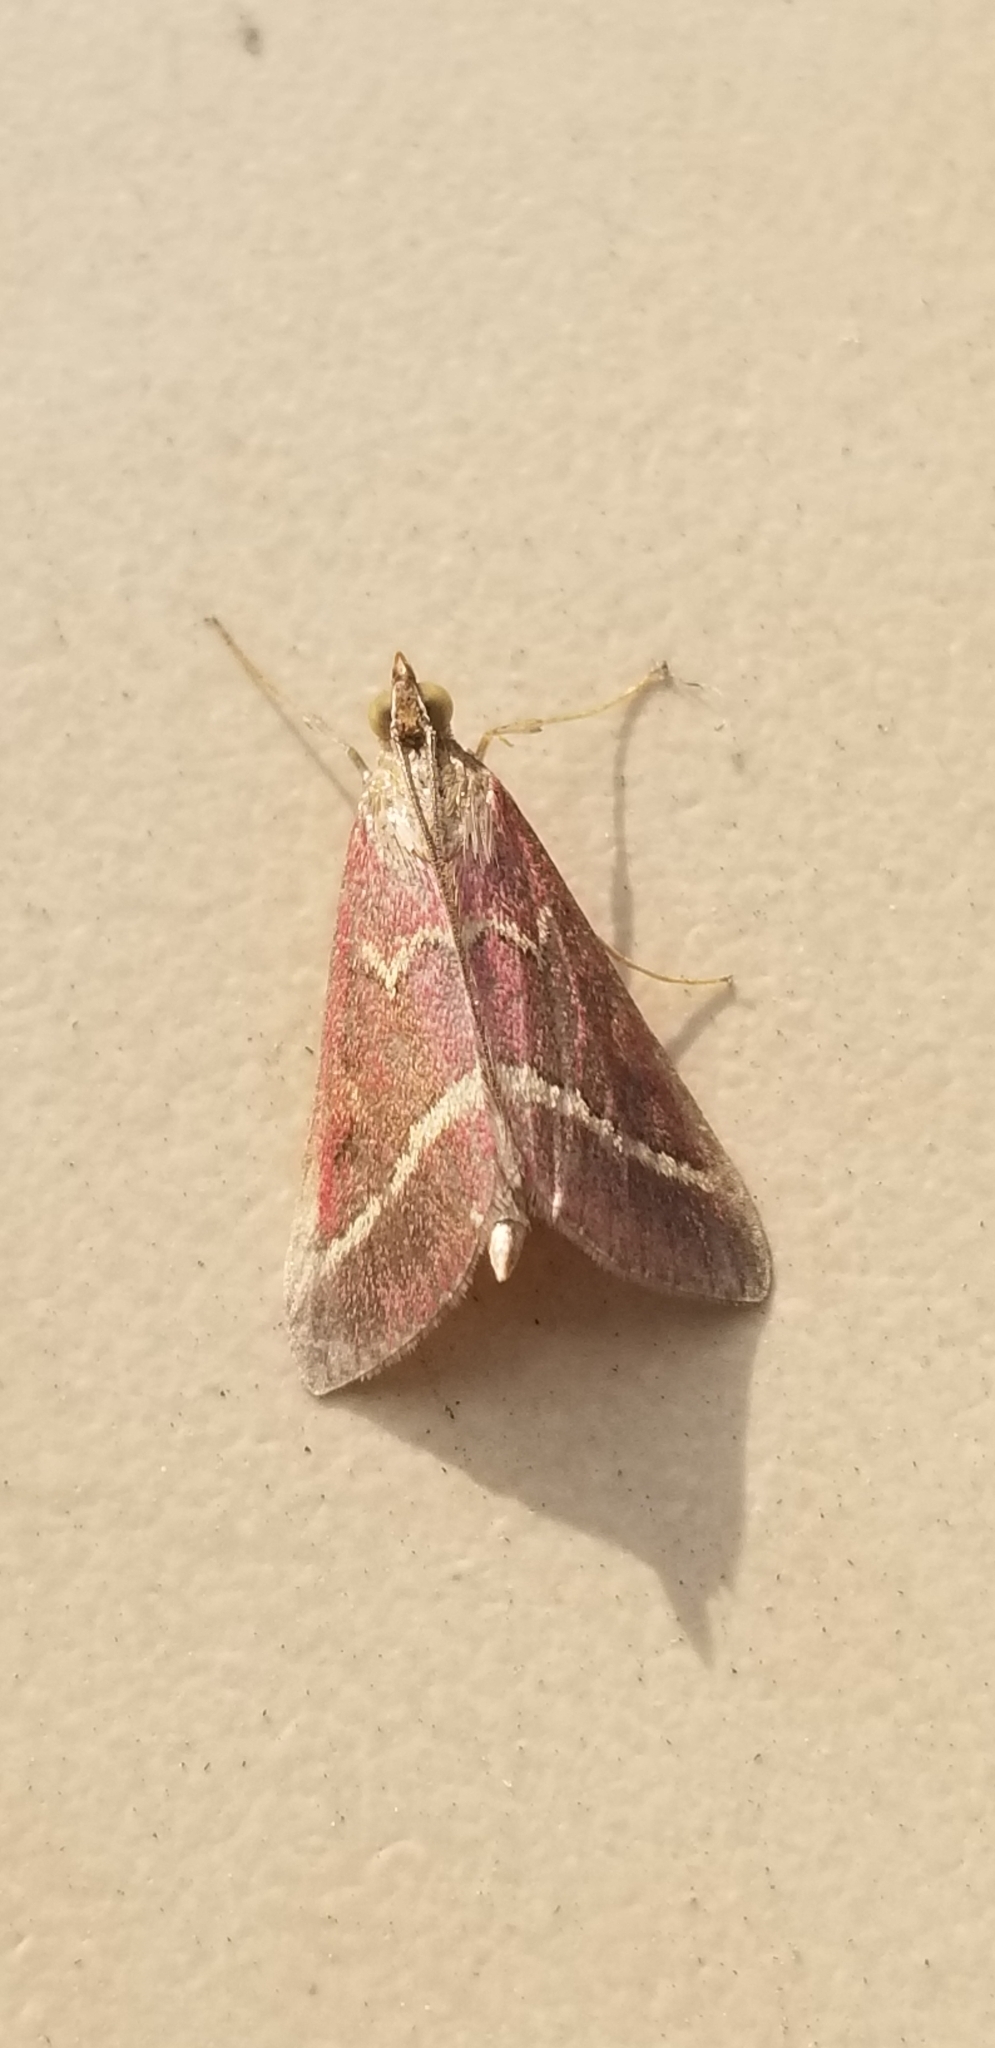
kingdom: Animalia
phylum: Arthropoda
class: Insecta
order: Lepidoptera
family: Crambidae
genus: Pyrausta
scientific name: Pyrausta volupialis
